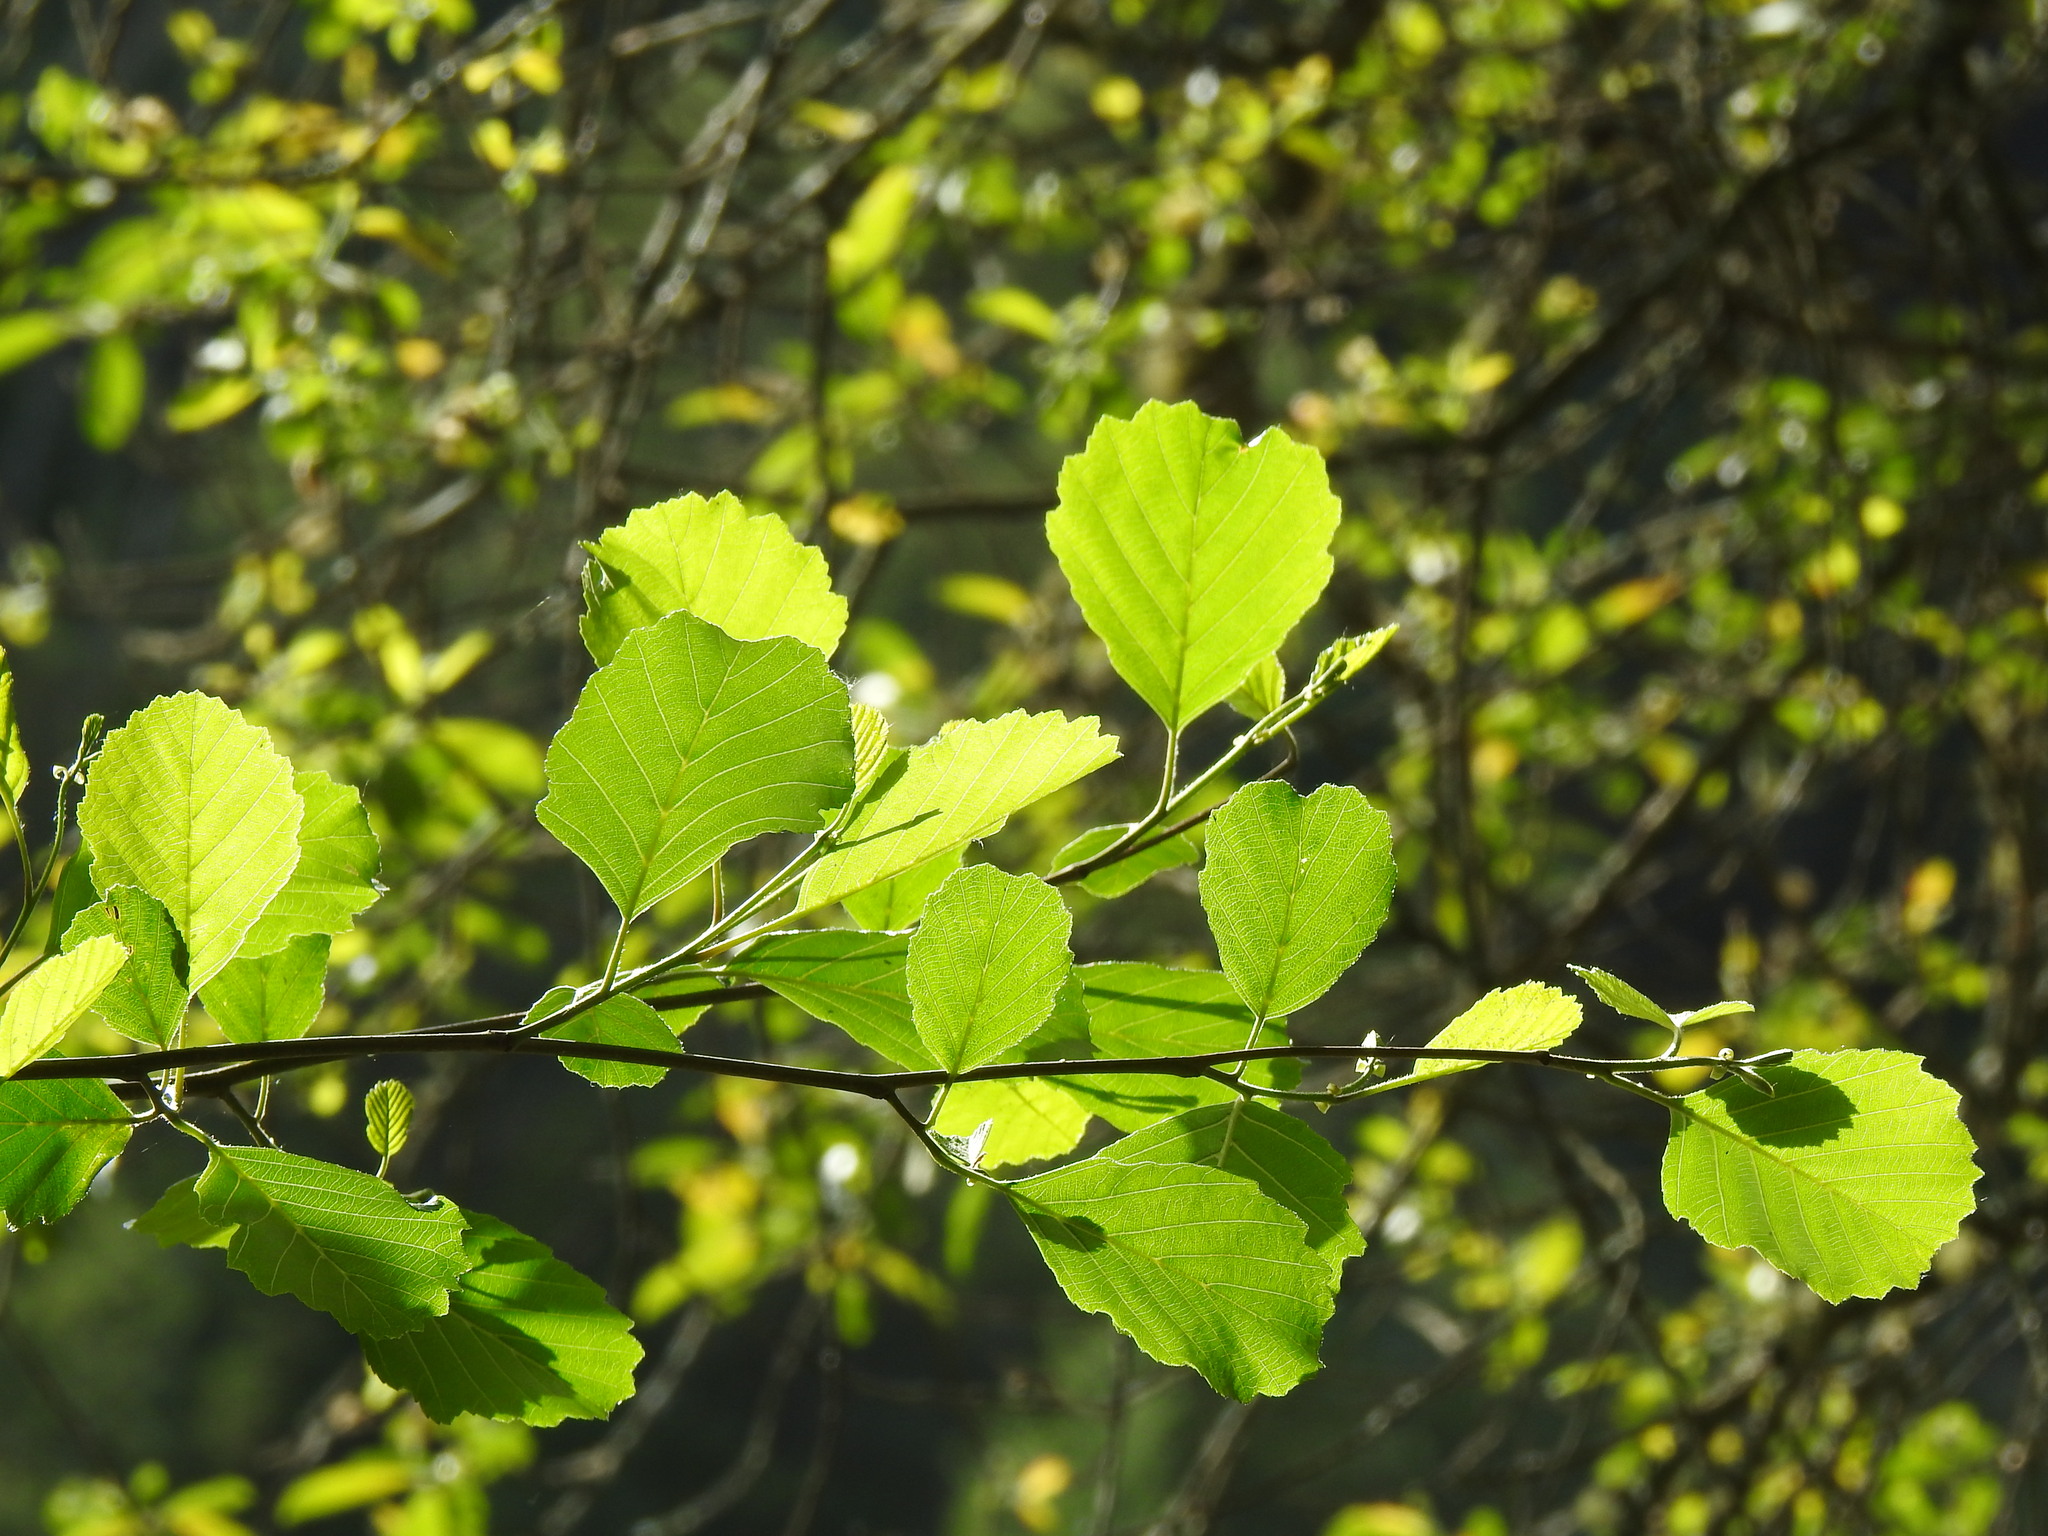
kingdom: Plantae
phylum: Tracheophyta
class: Magnoliopsida
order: Fagales
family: Betulaceae
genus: Alnus
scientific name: Alnus lusitanica
